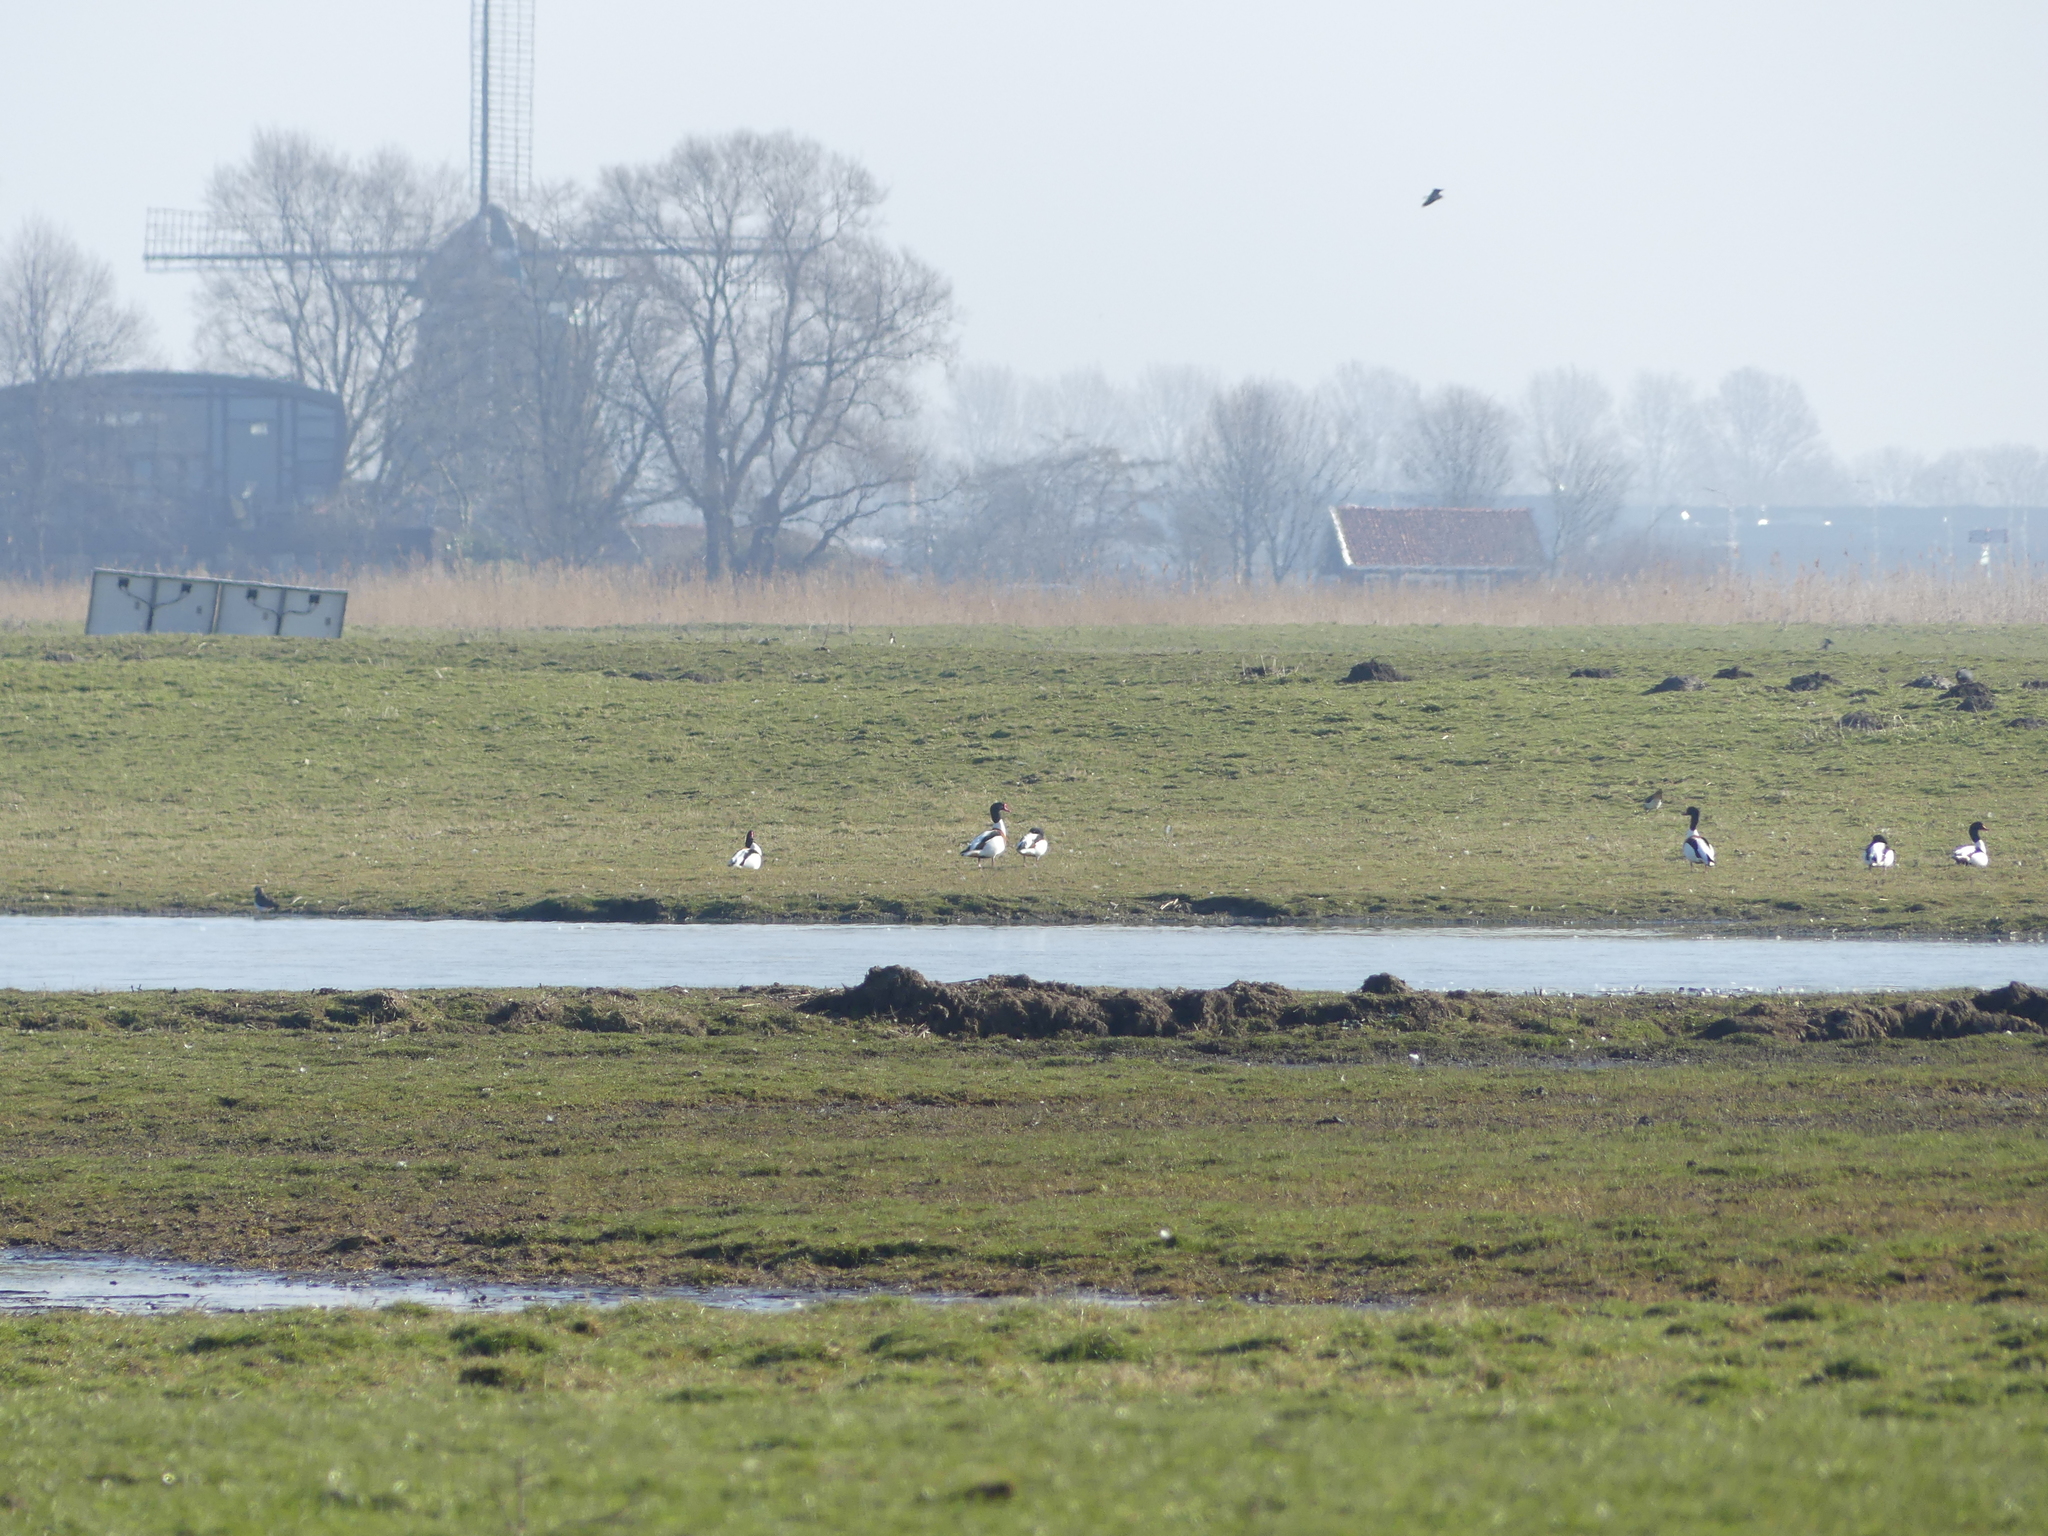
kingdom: Animalia
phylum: Chordata
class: Aves
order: Anseriformes
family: Anatidae
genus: Tadorna
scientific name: Tadorna tadorna
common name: Common shelduck
